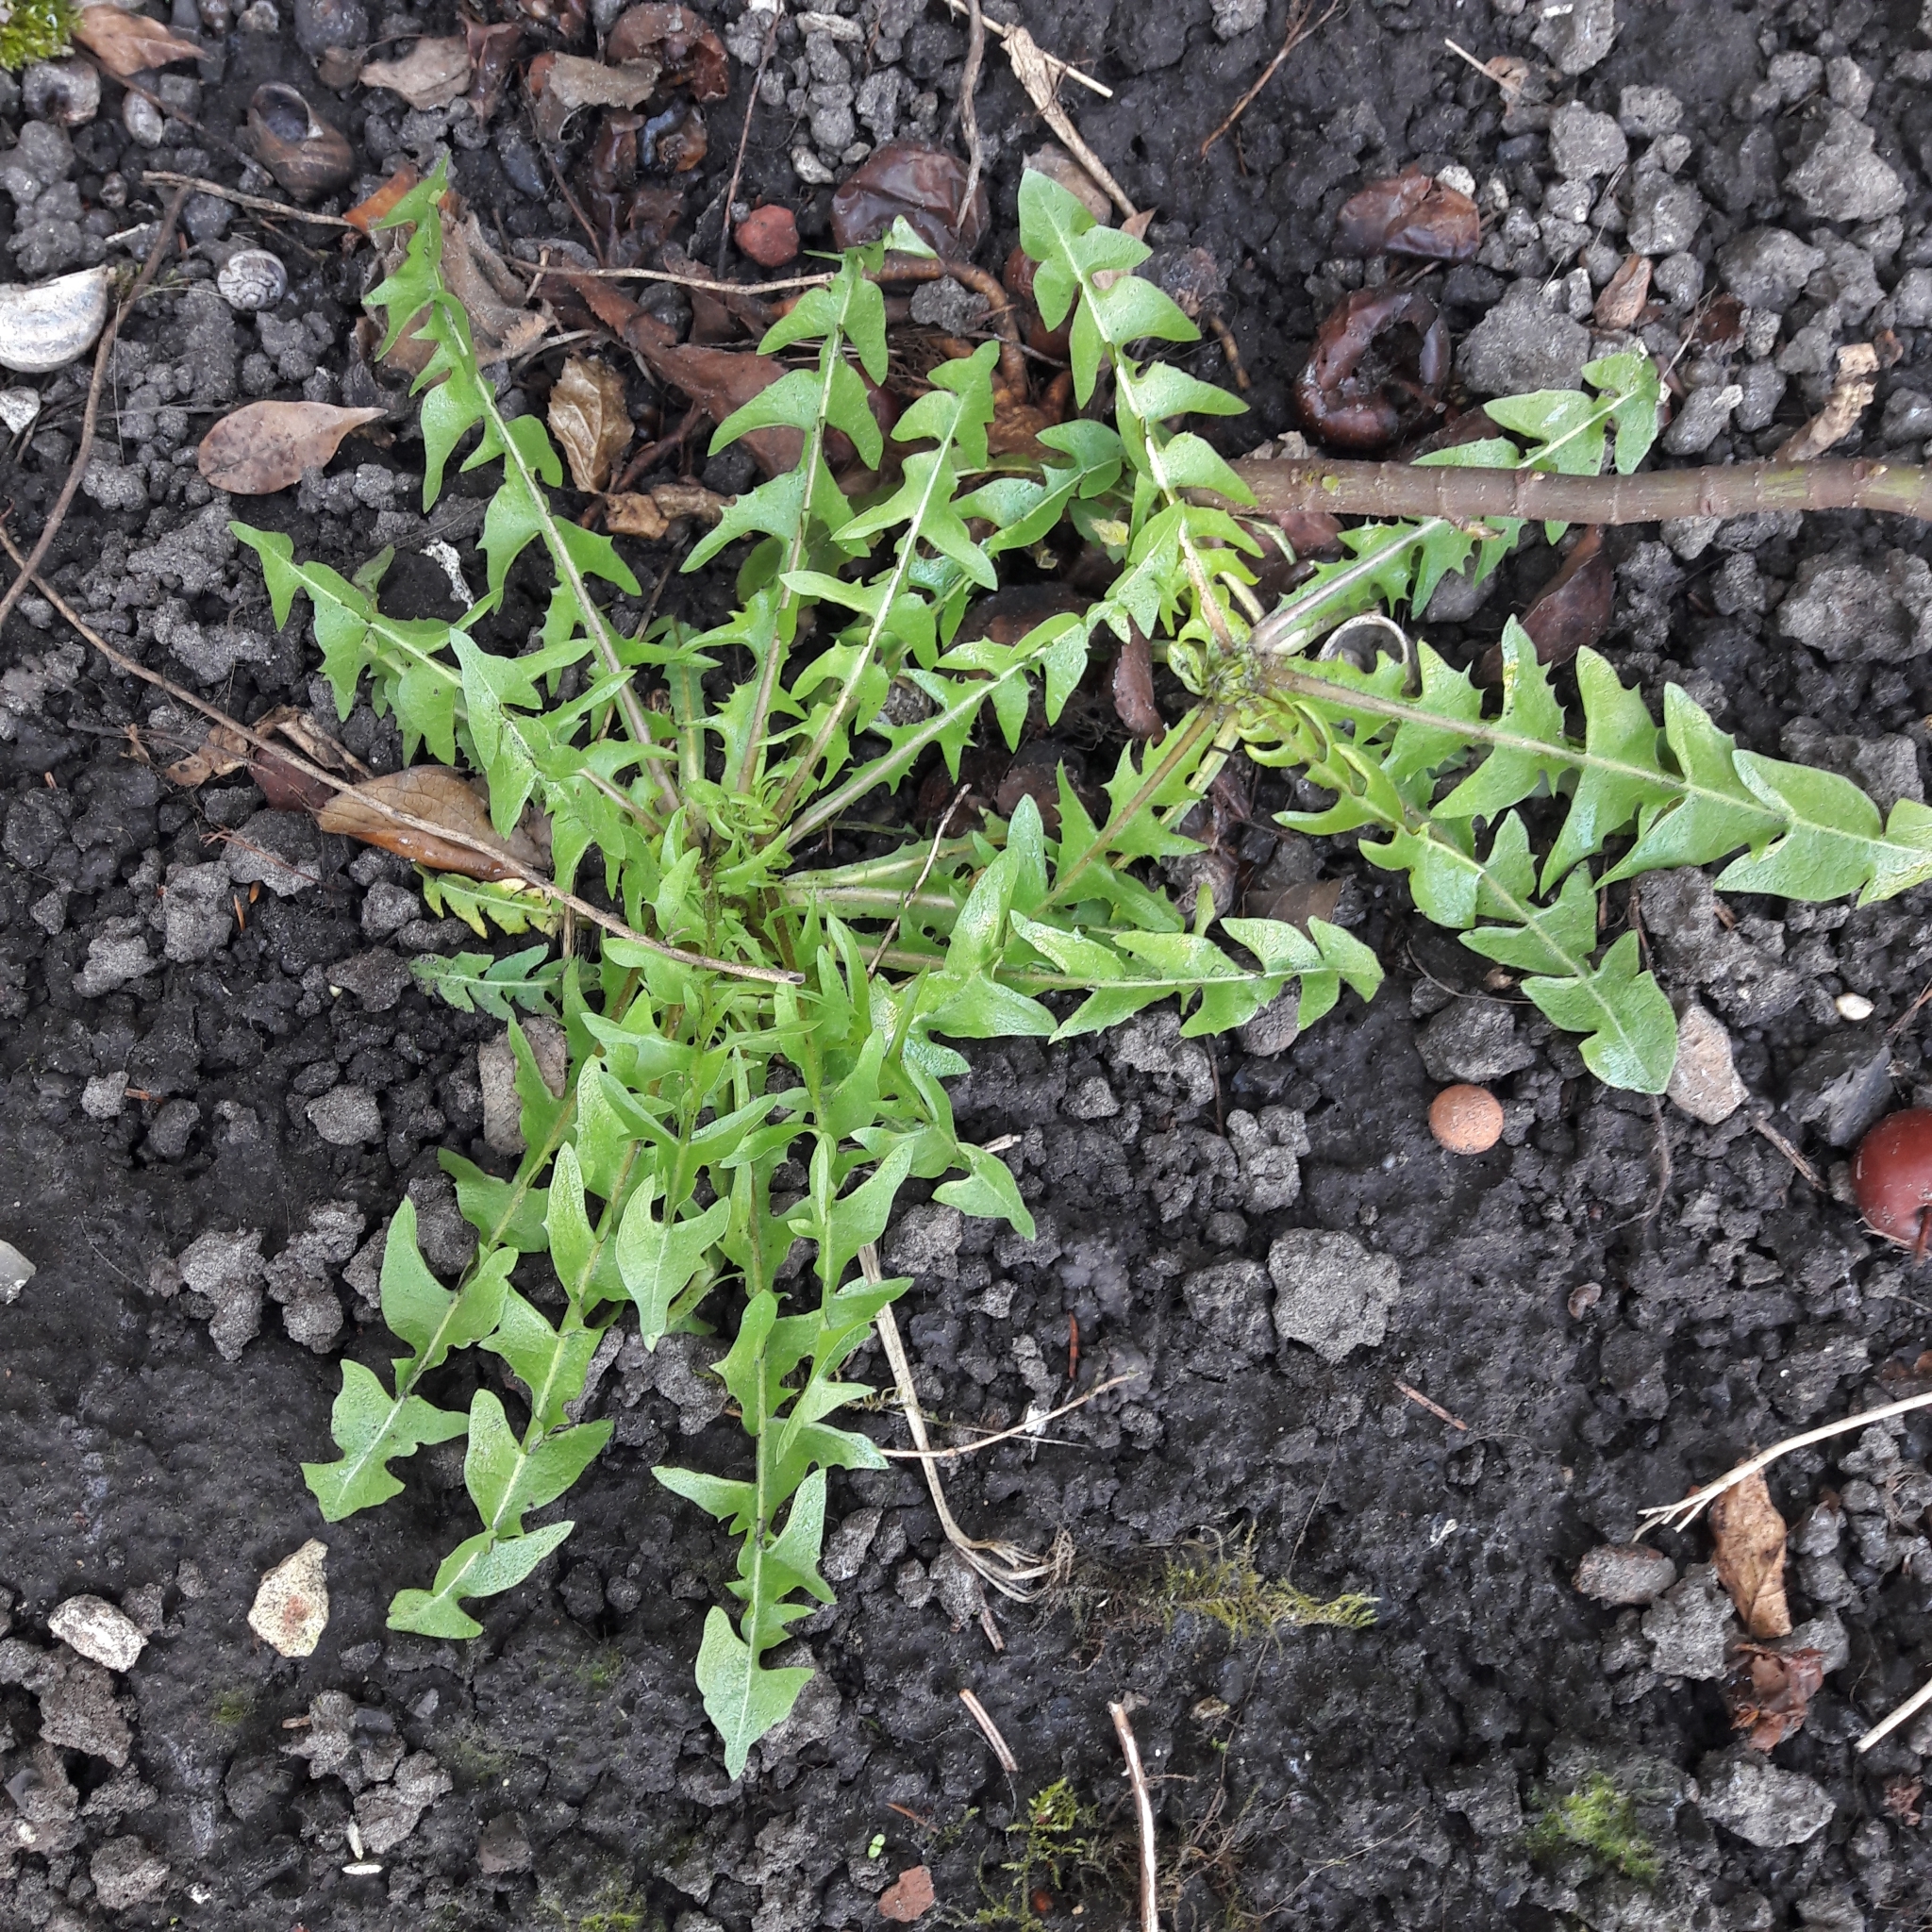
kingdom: Plantae
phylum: Tracheophyta
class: Magnoliopsida
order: Asterales
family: Asteraceae
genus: Taraxacum
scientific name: Taraxacum officinale
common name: Common dandelion
